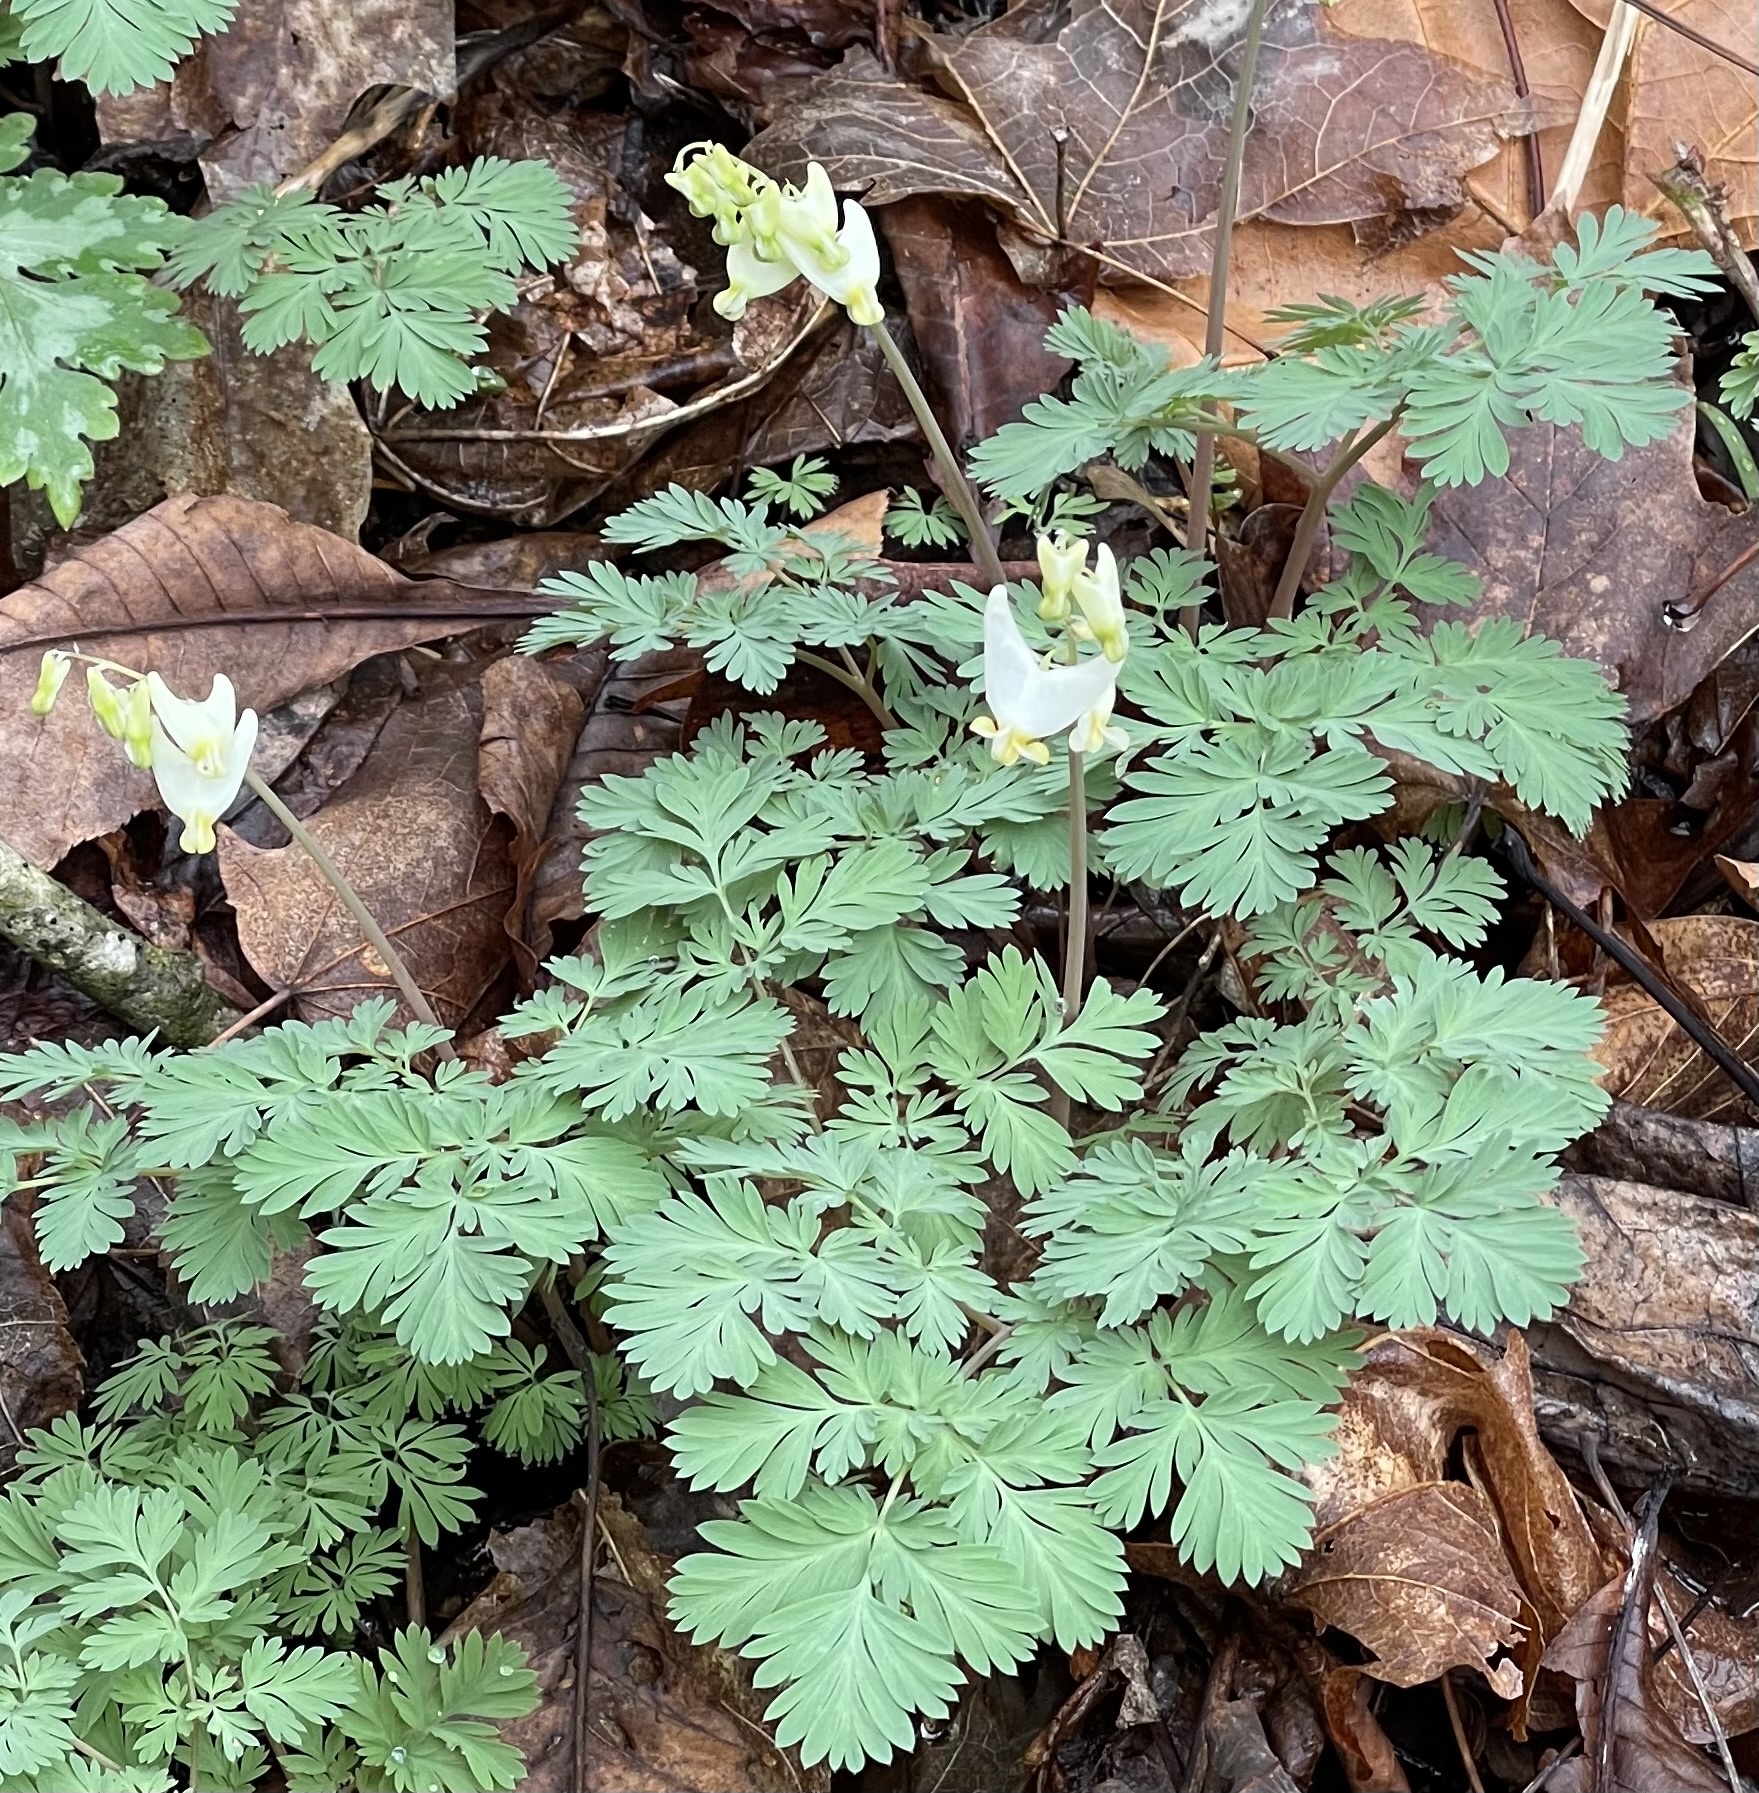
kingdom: Plantae
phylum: Tracheophyta
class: Magnoliopsida
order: Ranunculales
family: Papaveraceae
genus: Dicentra
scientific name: Dicentra cucullaria
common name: Dutchman's breeches
